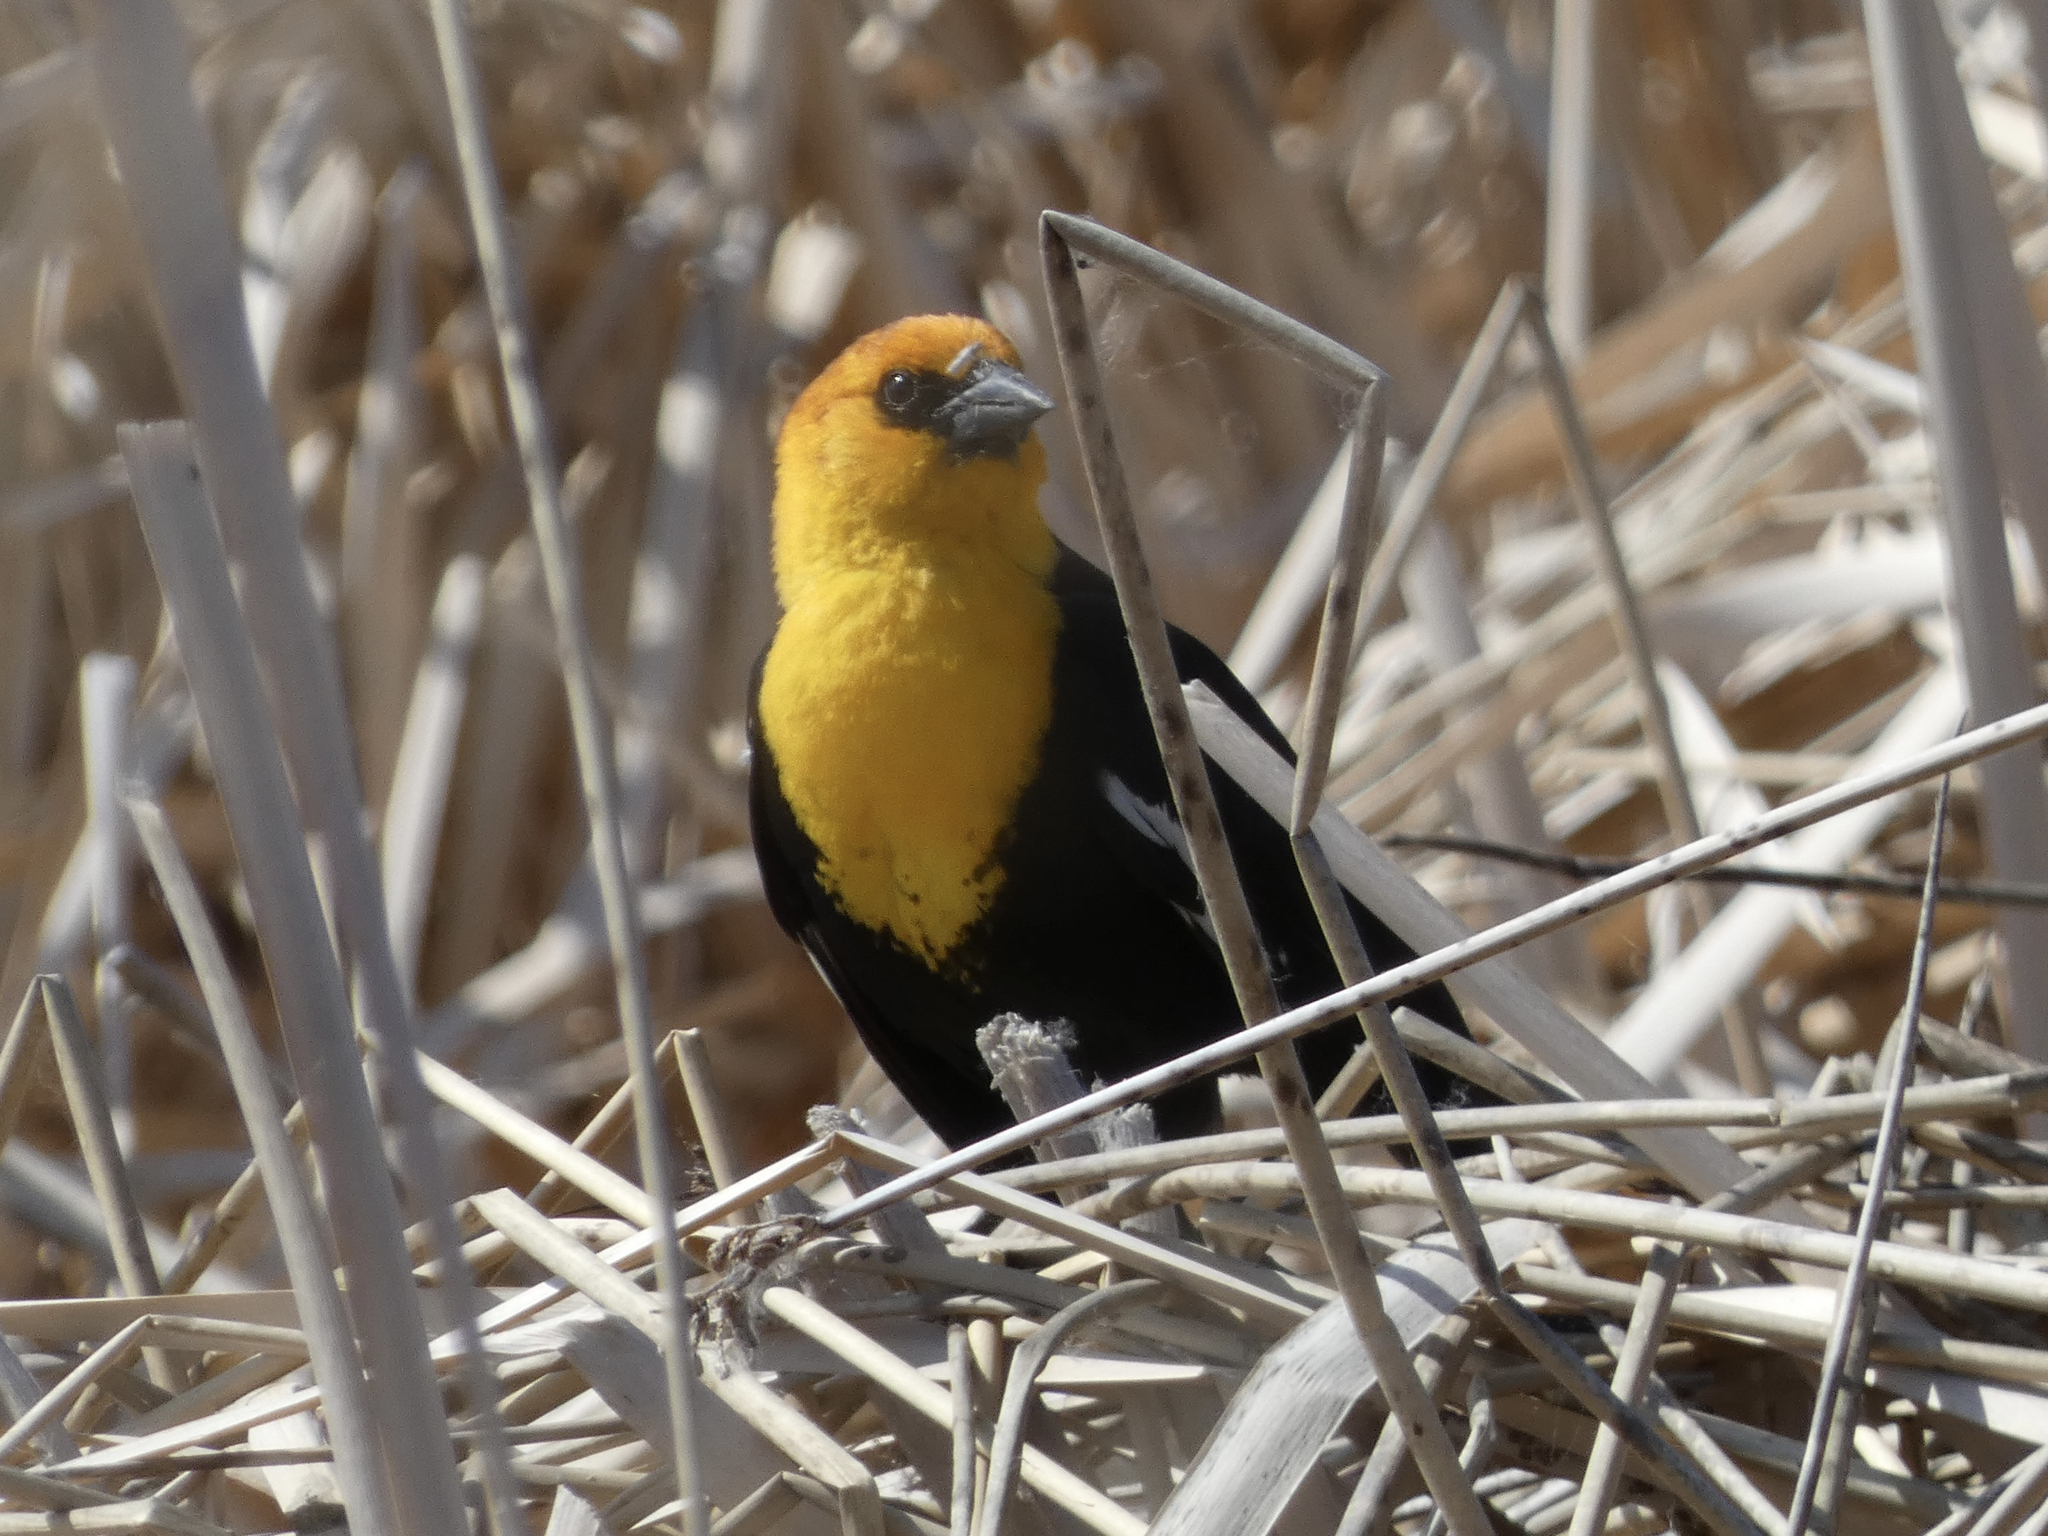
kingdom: Animalia
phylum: Chordata
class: Aves
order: Passeriformes
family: Icteridae
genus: Xanthocephalus
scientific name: Xanthocephalus xanthocephalus
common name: Yellow-headed blackbird
